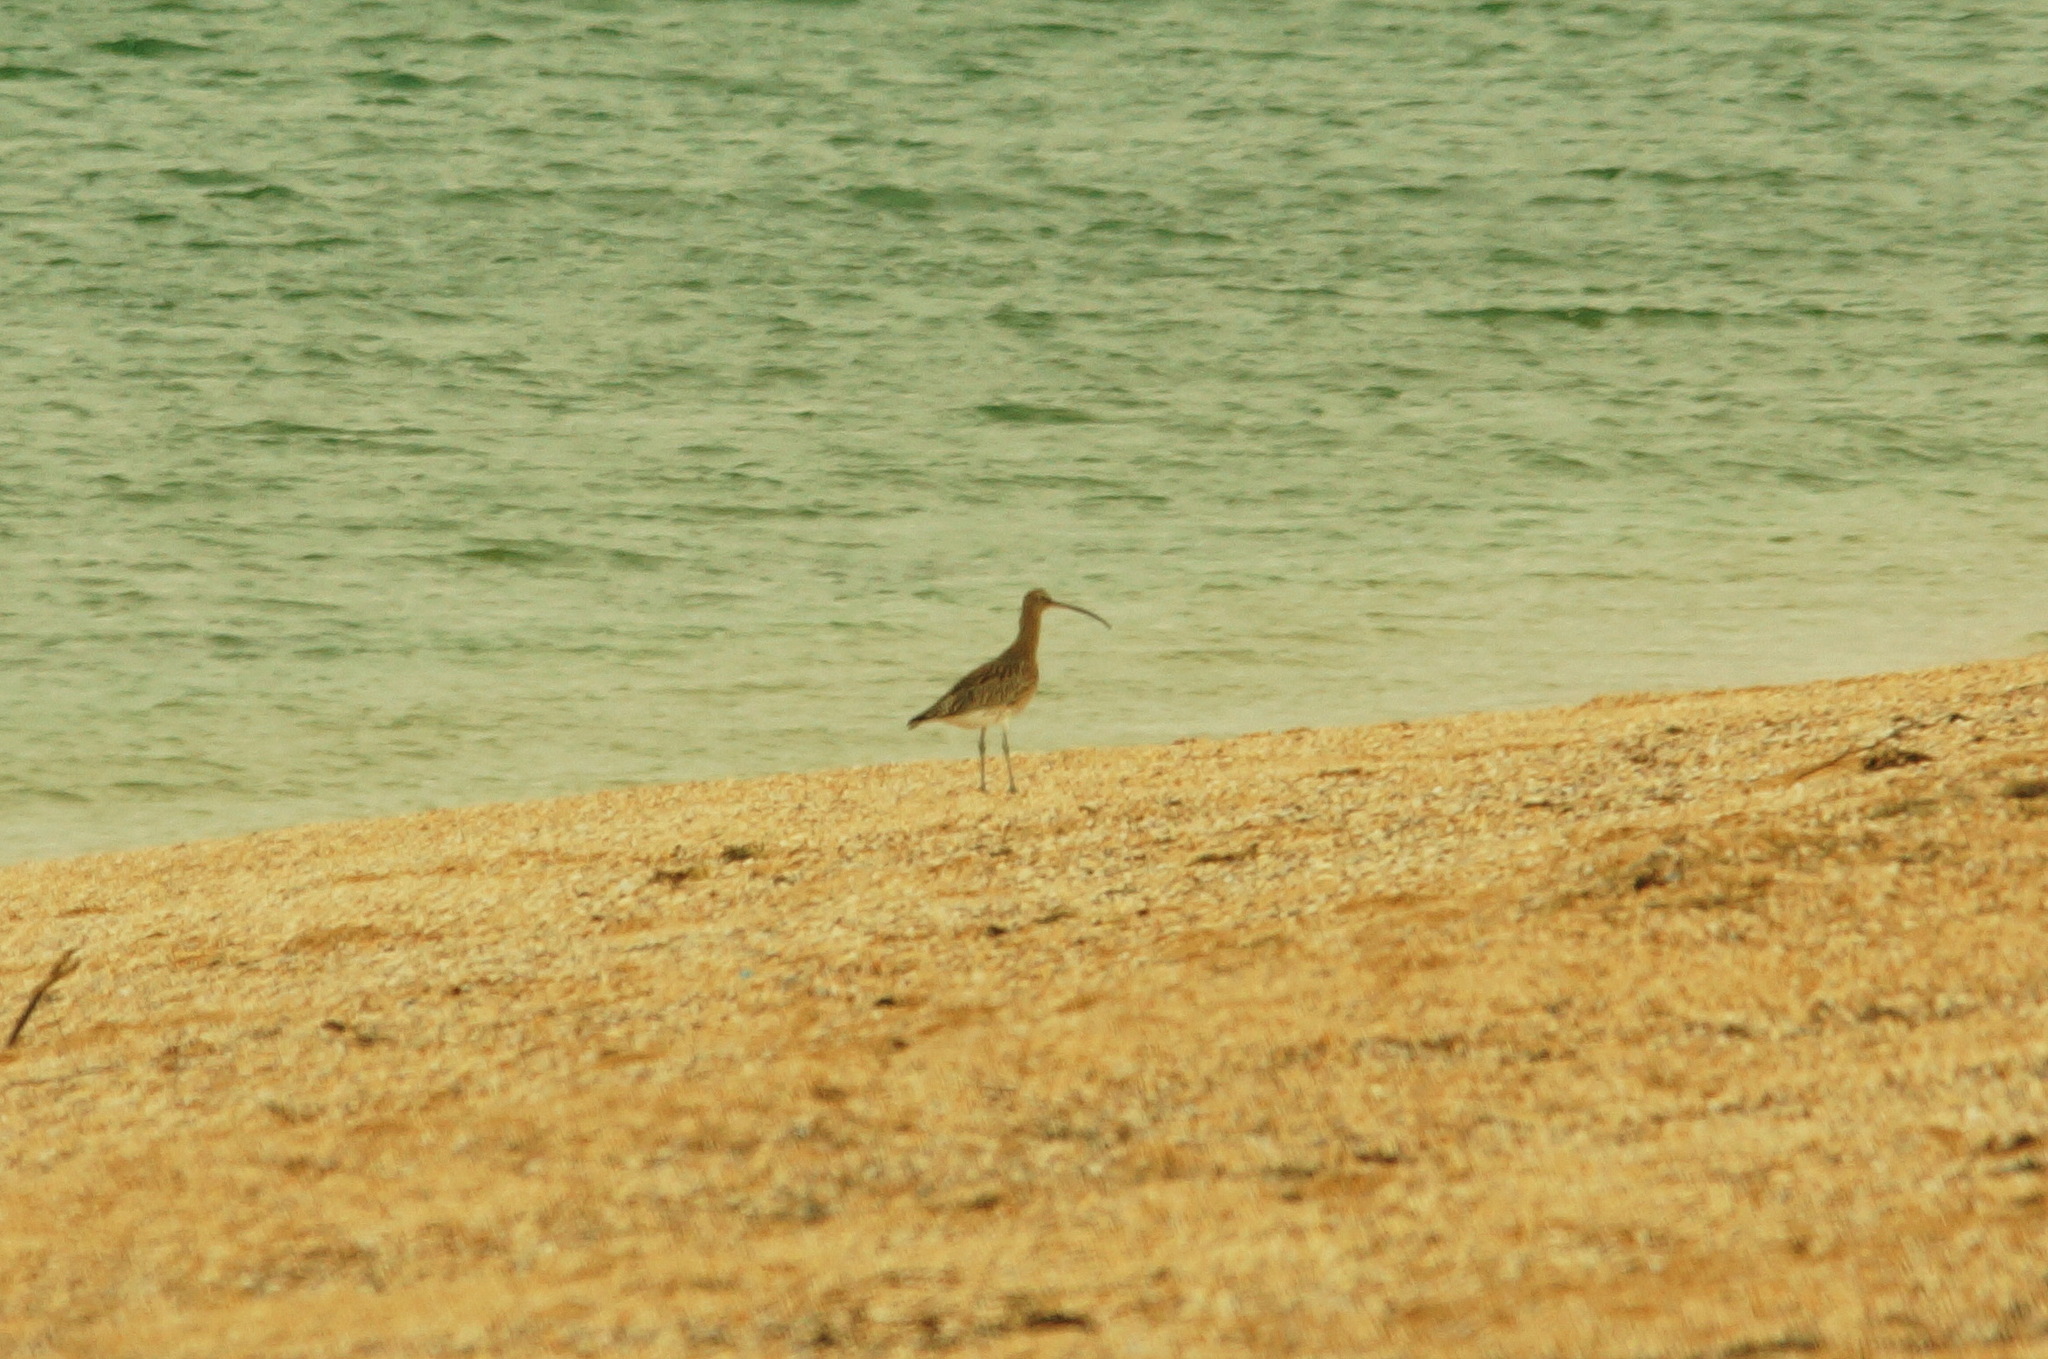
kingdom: Animalia
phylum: Chordata
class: Aves
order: Charadriiformes
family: Scolopacidae
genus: Numenius
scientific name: Numenius arquata
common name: Eurasian curlew
